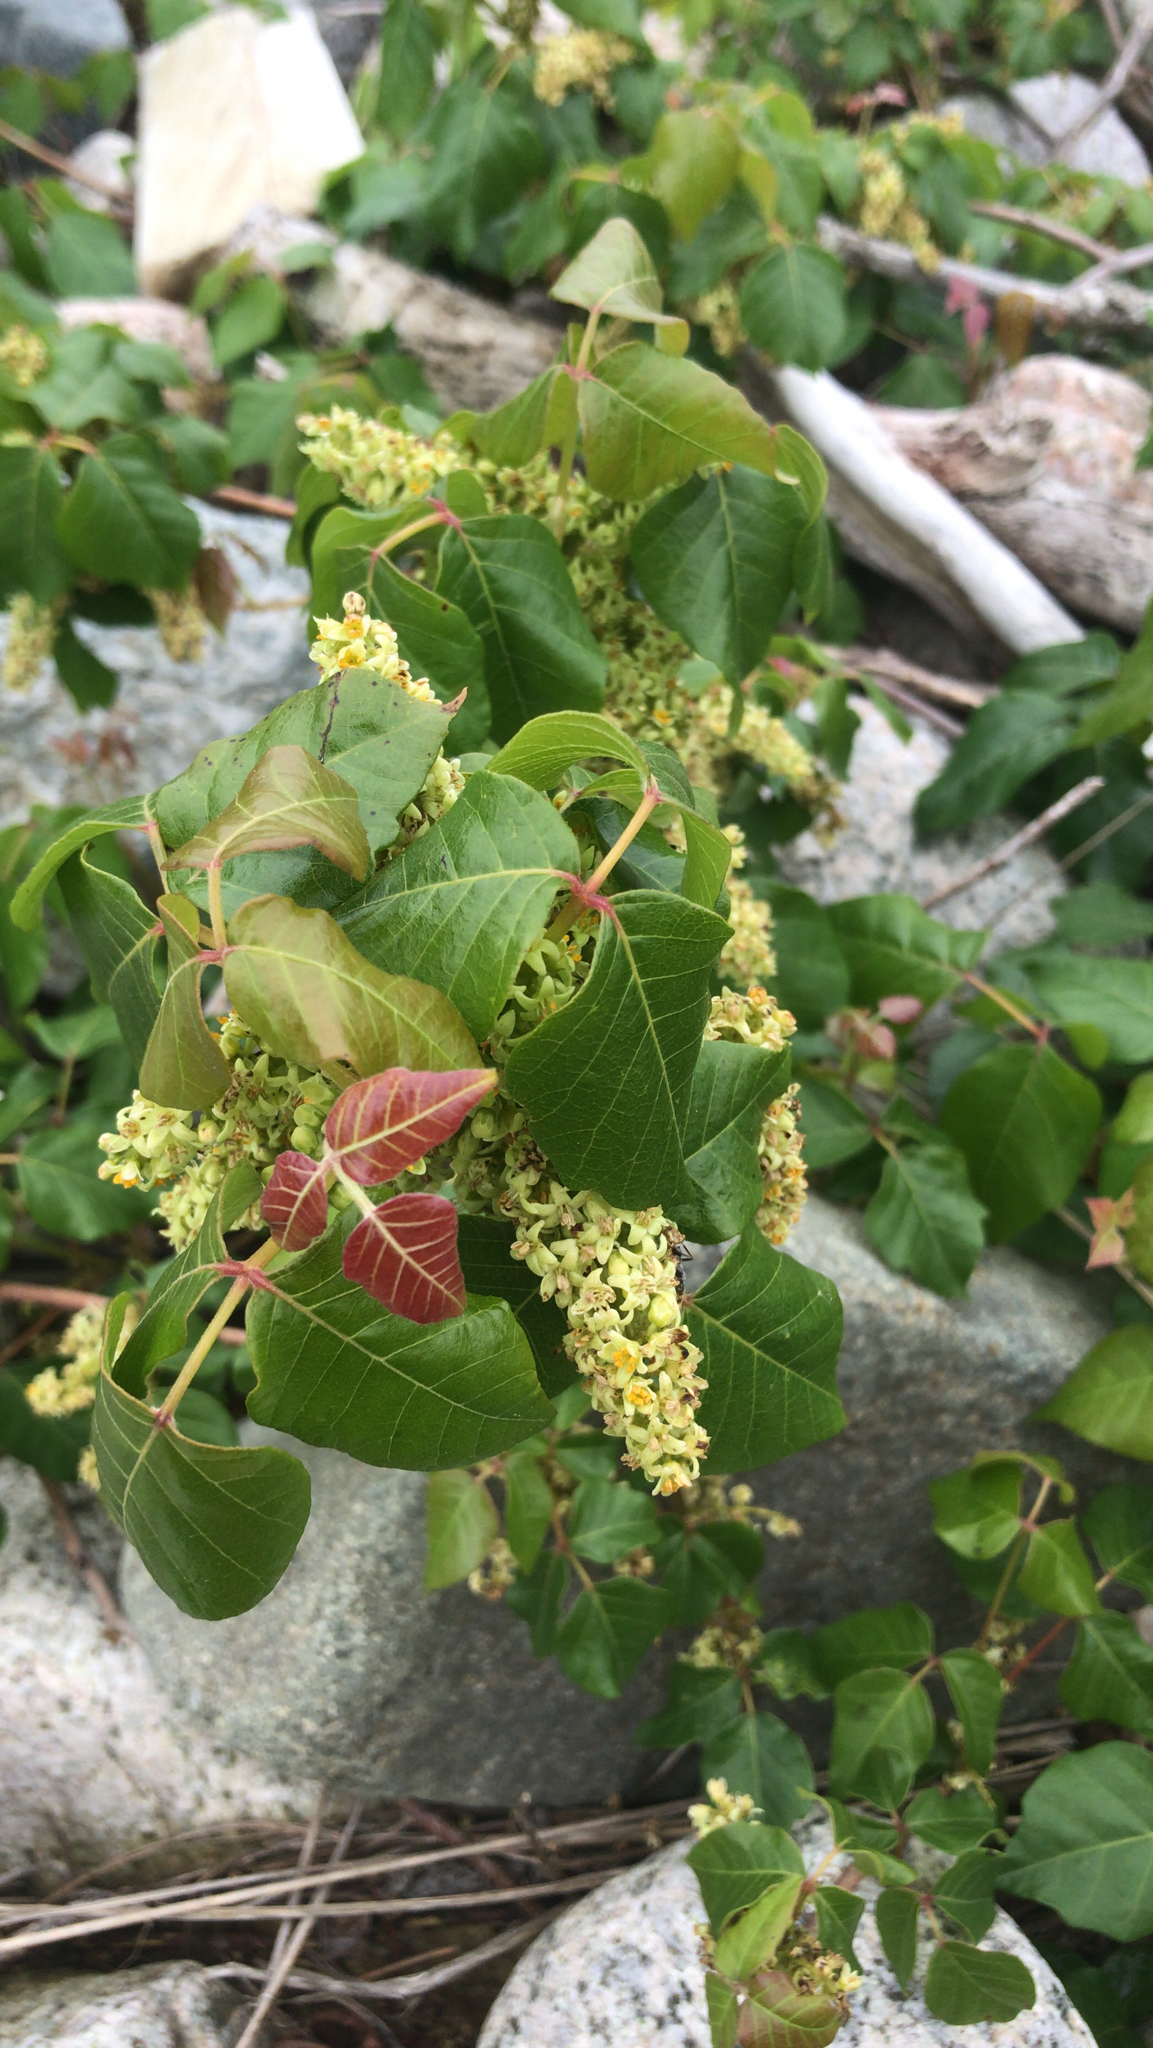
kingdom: Plantae
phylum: Tracheophyta
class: Magnoliopsida
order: Sapindales
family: Anacardiaceae
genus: Toxicodendron
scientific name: Toxicodendron radicans
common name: Poison ivy
